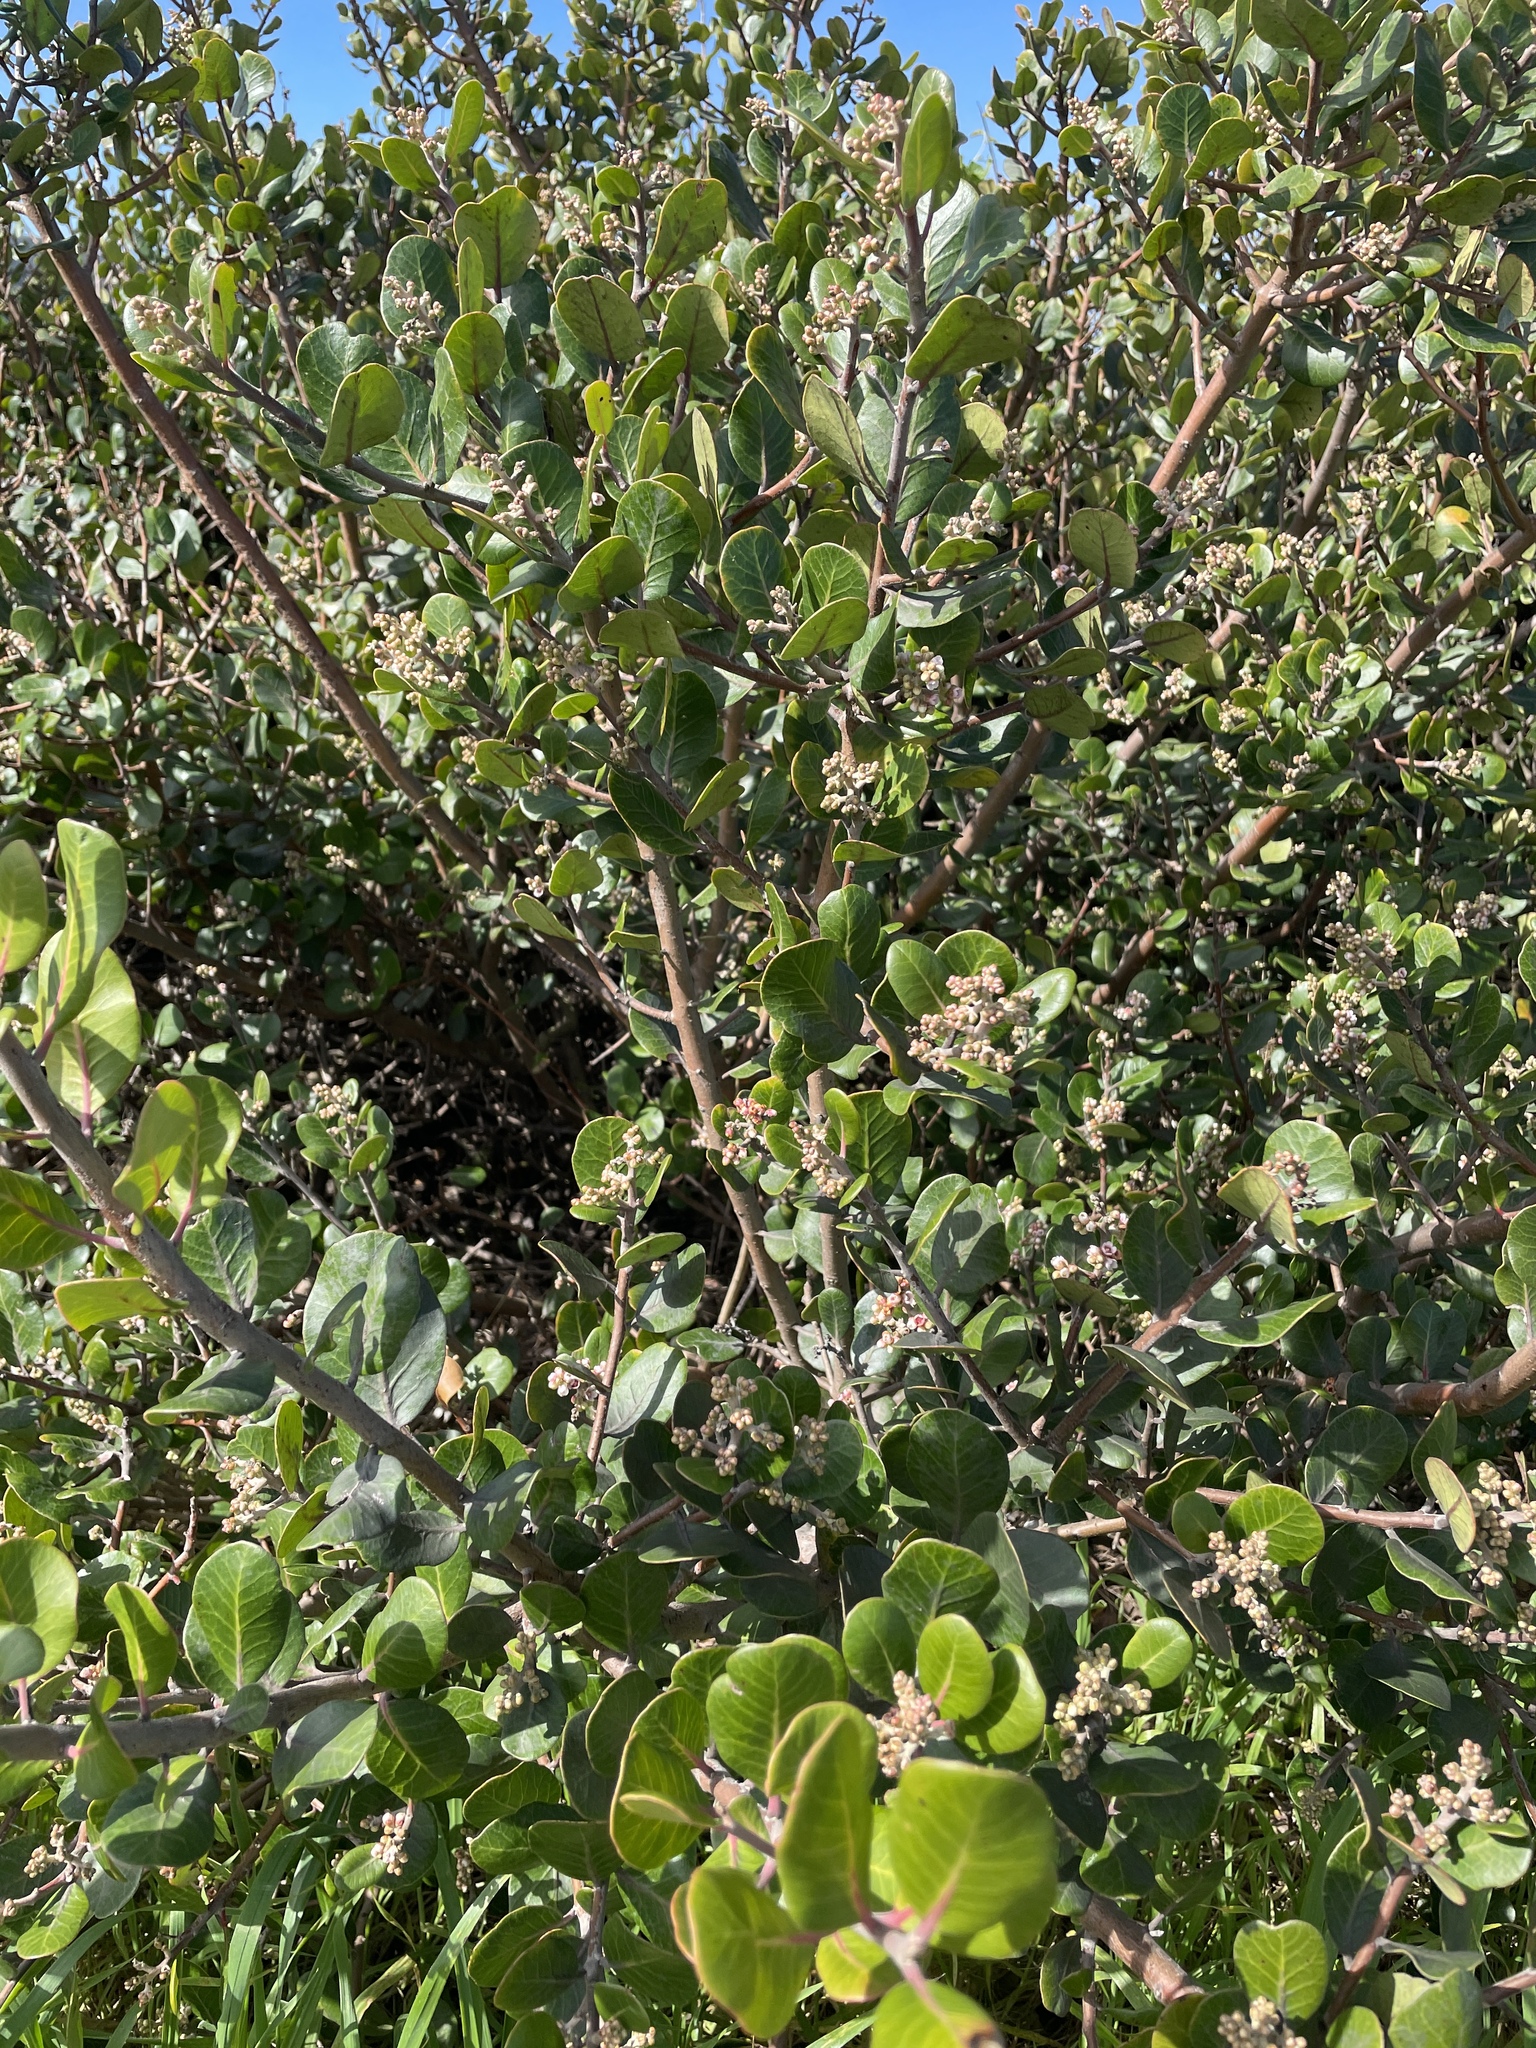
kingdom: Plantae
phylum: Tracheophyta
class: Magnoliopsida
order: Sapindales
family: Anacardiaceae
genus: Rhus
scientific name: Rhus integrifolia
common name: Lemonade sumac
